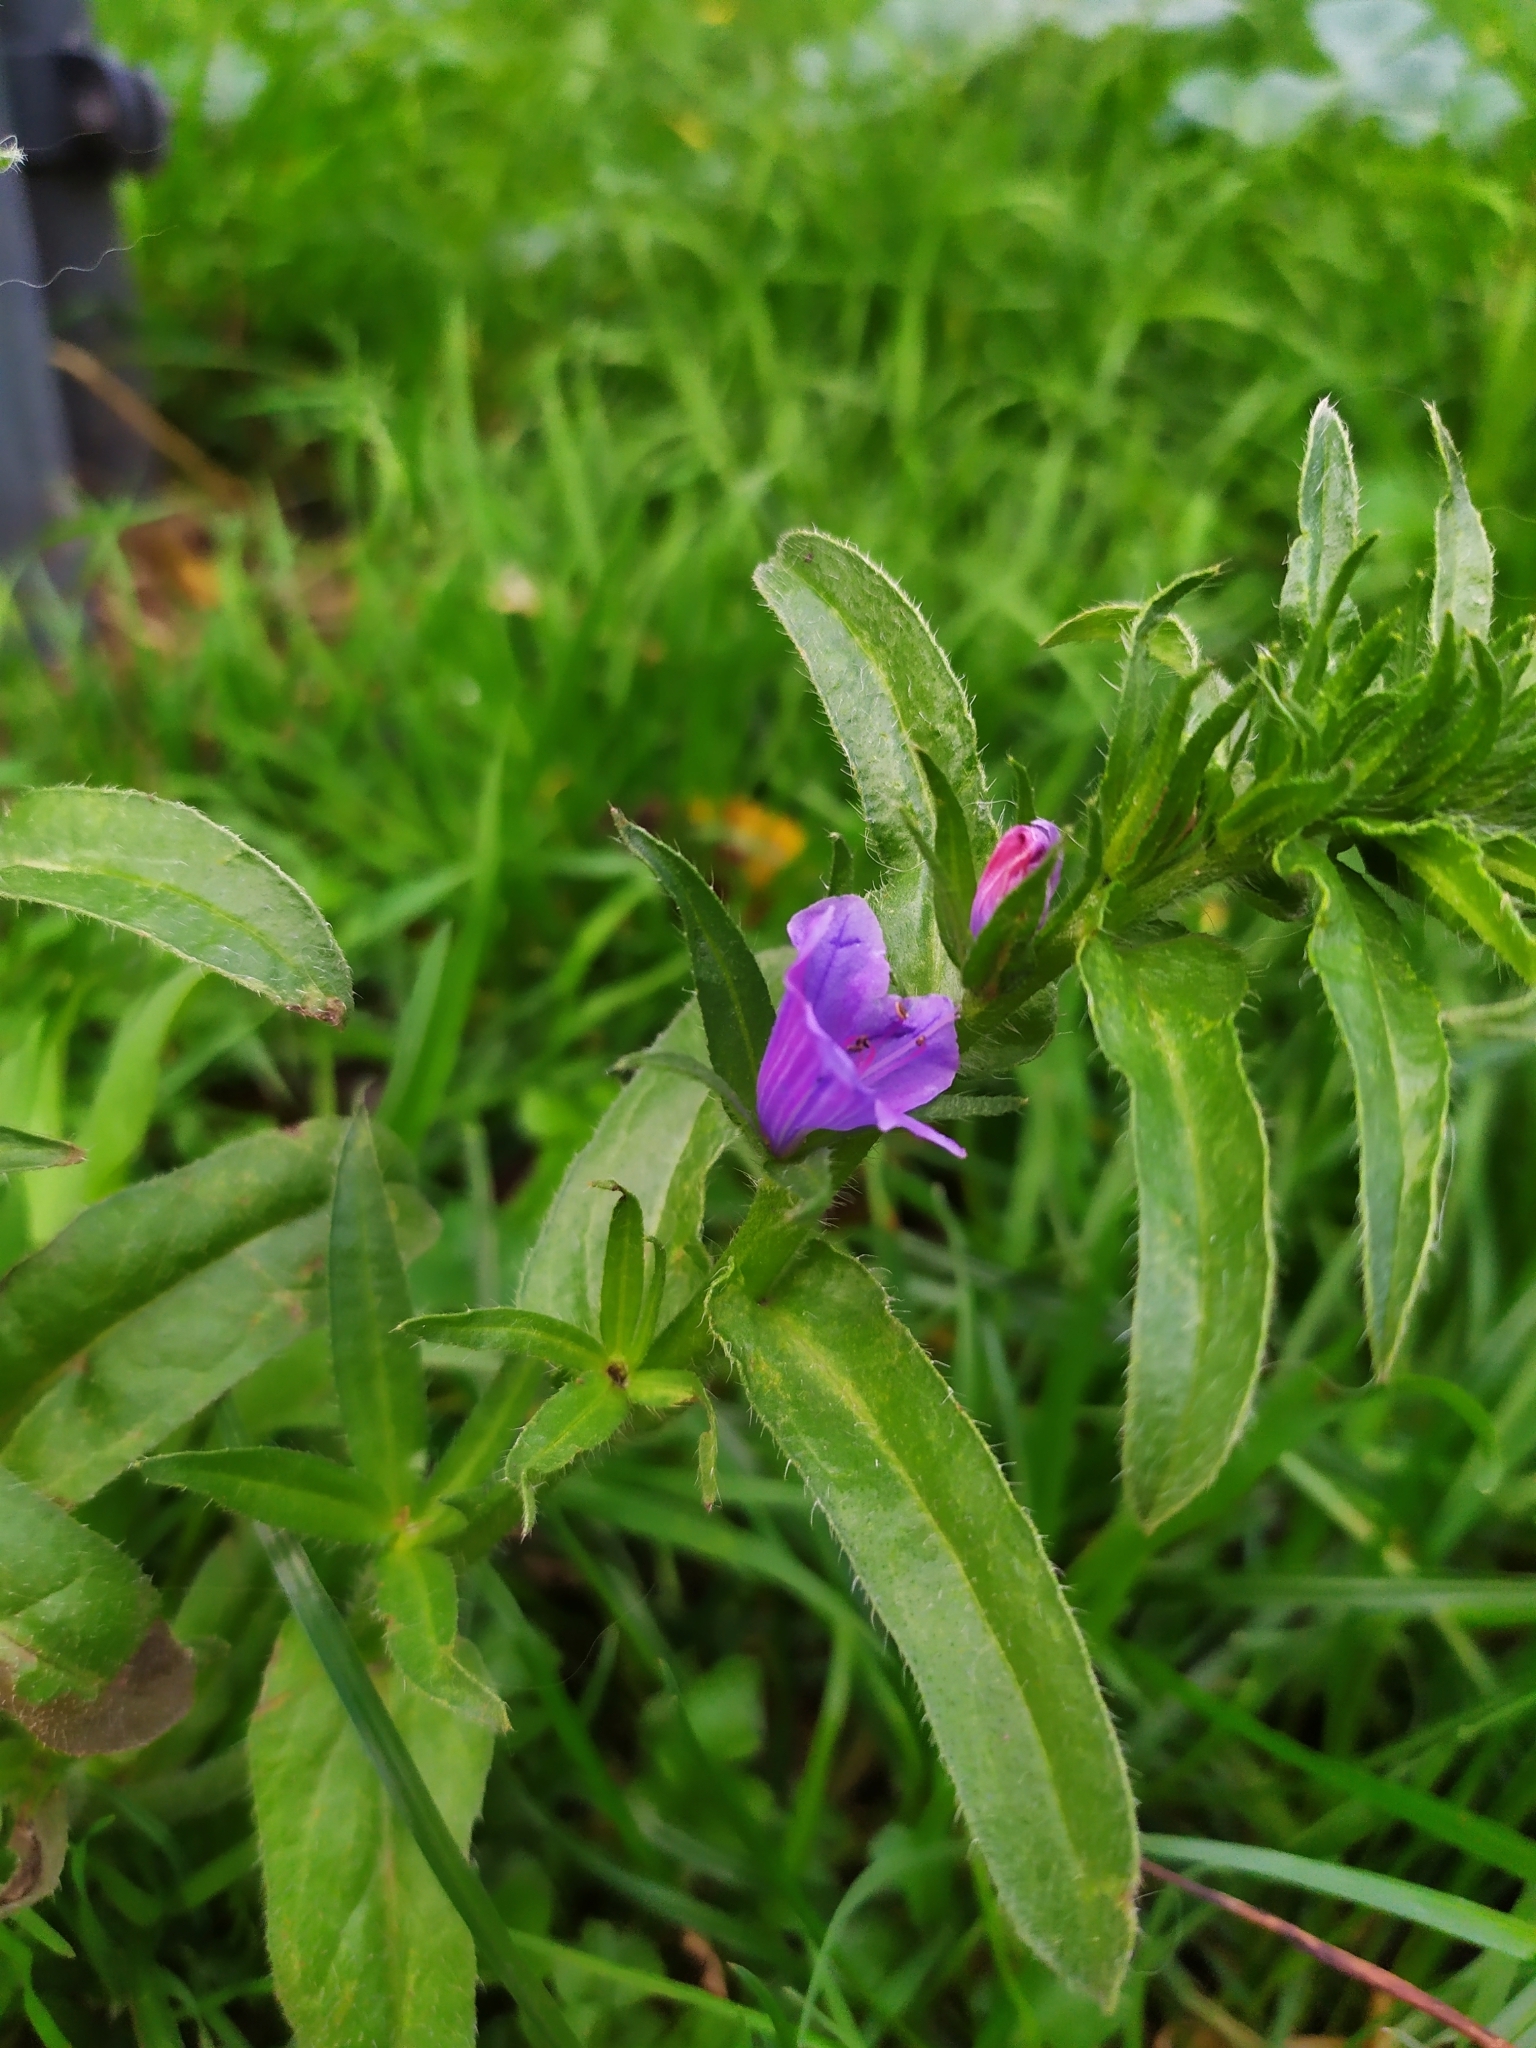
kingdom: Plantae
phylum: Tracheophyta
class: Magnoliopsida
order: Boraginales
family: Boraginaceae
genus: Echium
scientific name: Echium plantagineum
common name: Purple viper's-bugloss
